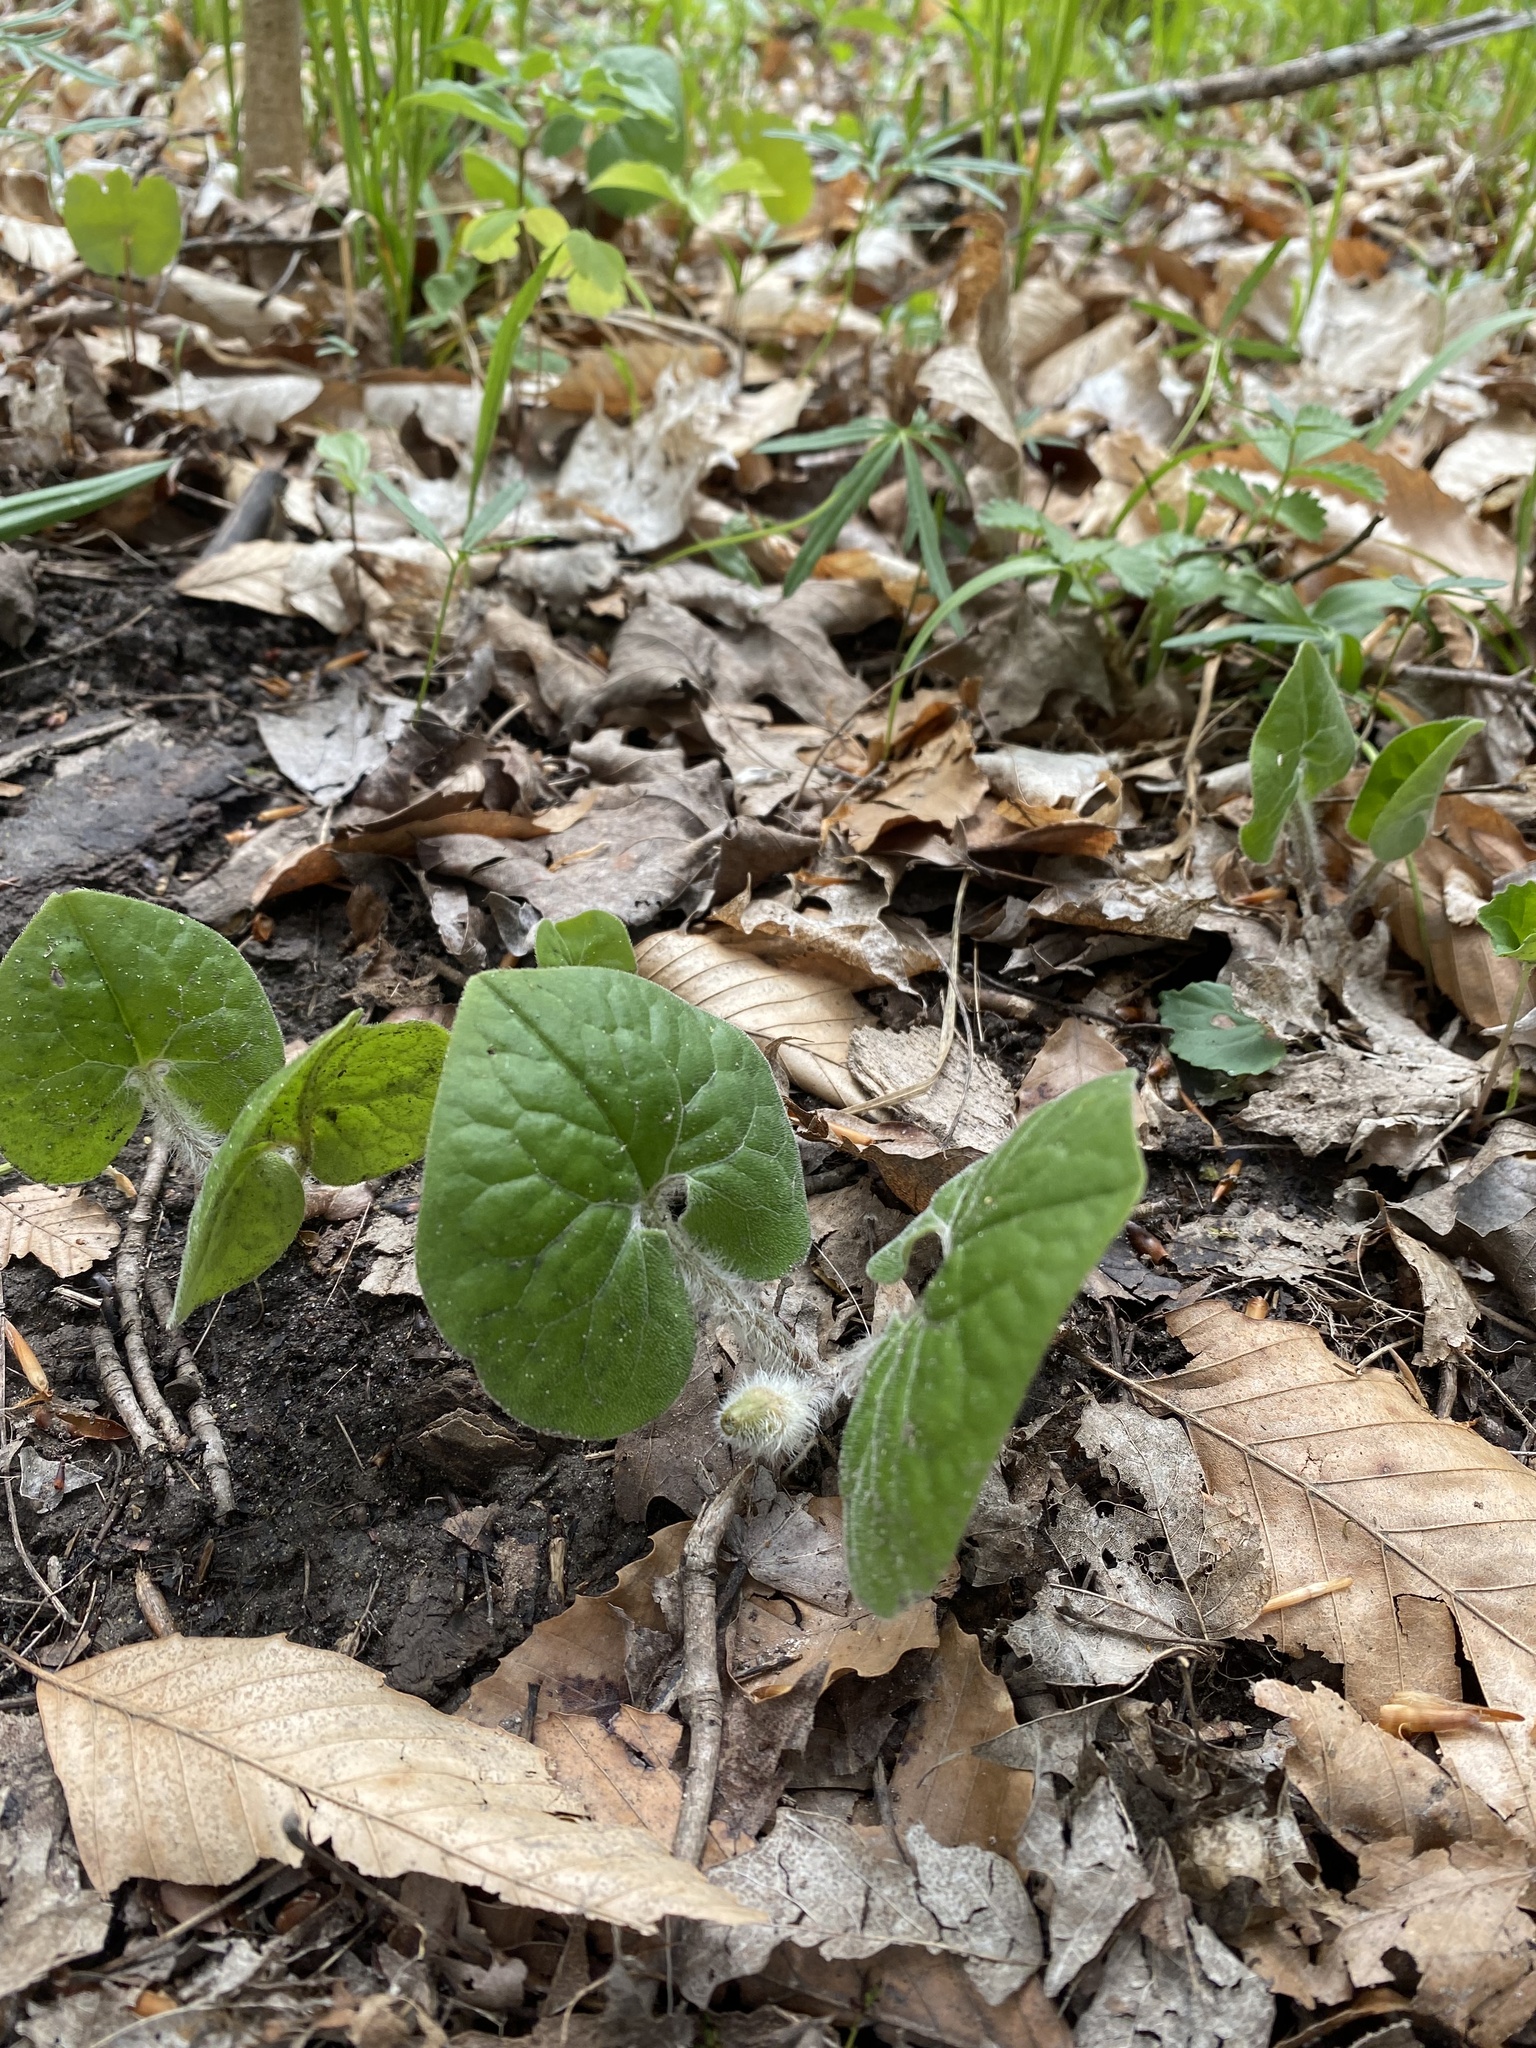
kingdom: Plantae
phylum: Tracheophyta
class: Magnoliopsida
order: Piperales
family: Aristolochiaceae
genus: Asarum
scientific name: Asarum canadense
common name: Wild ginger
